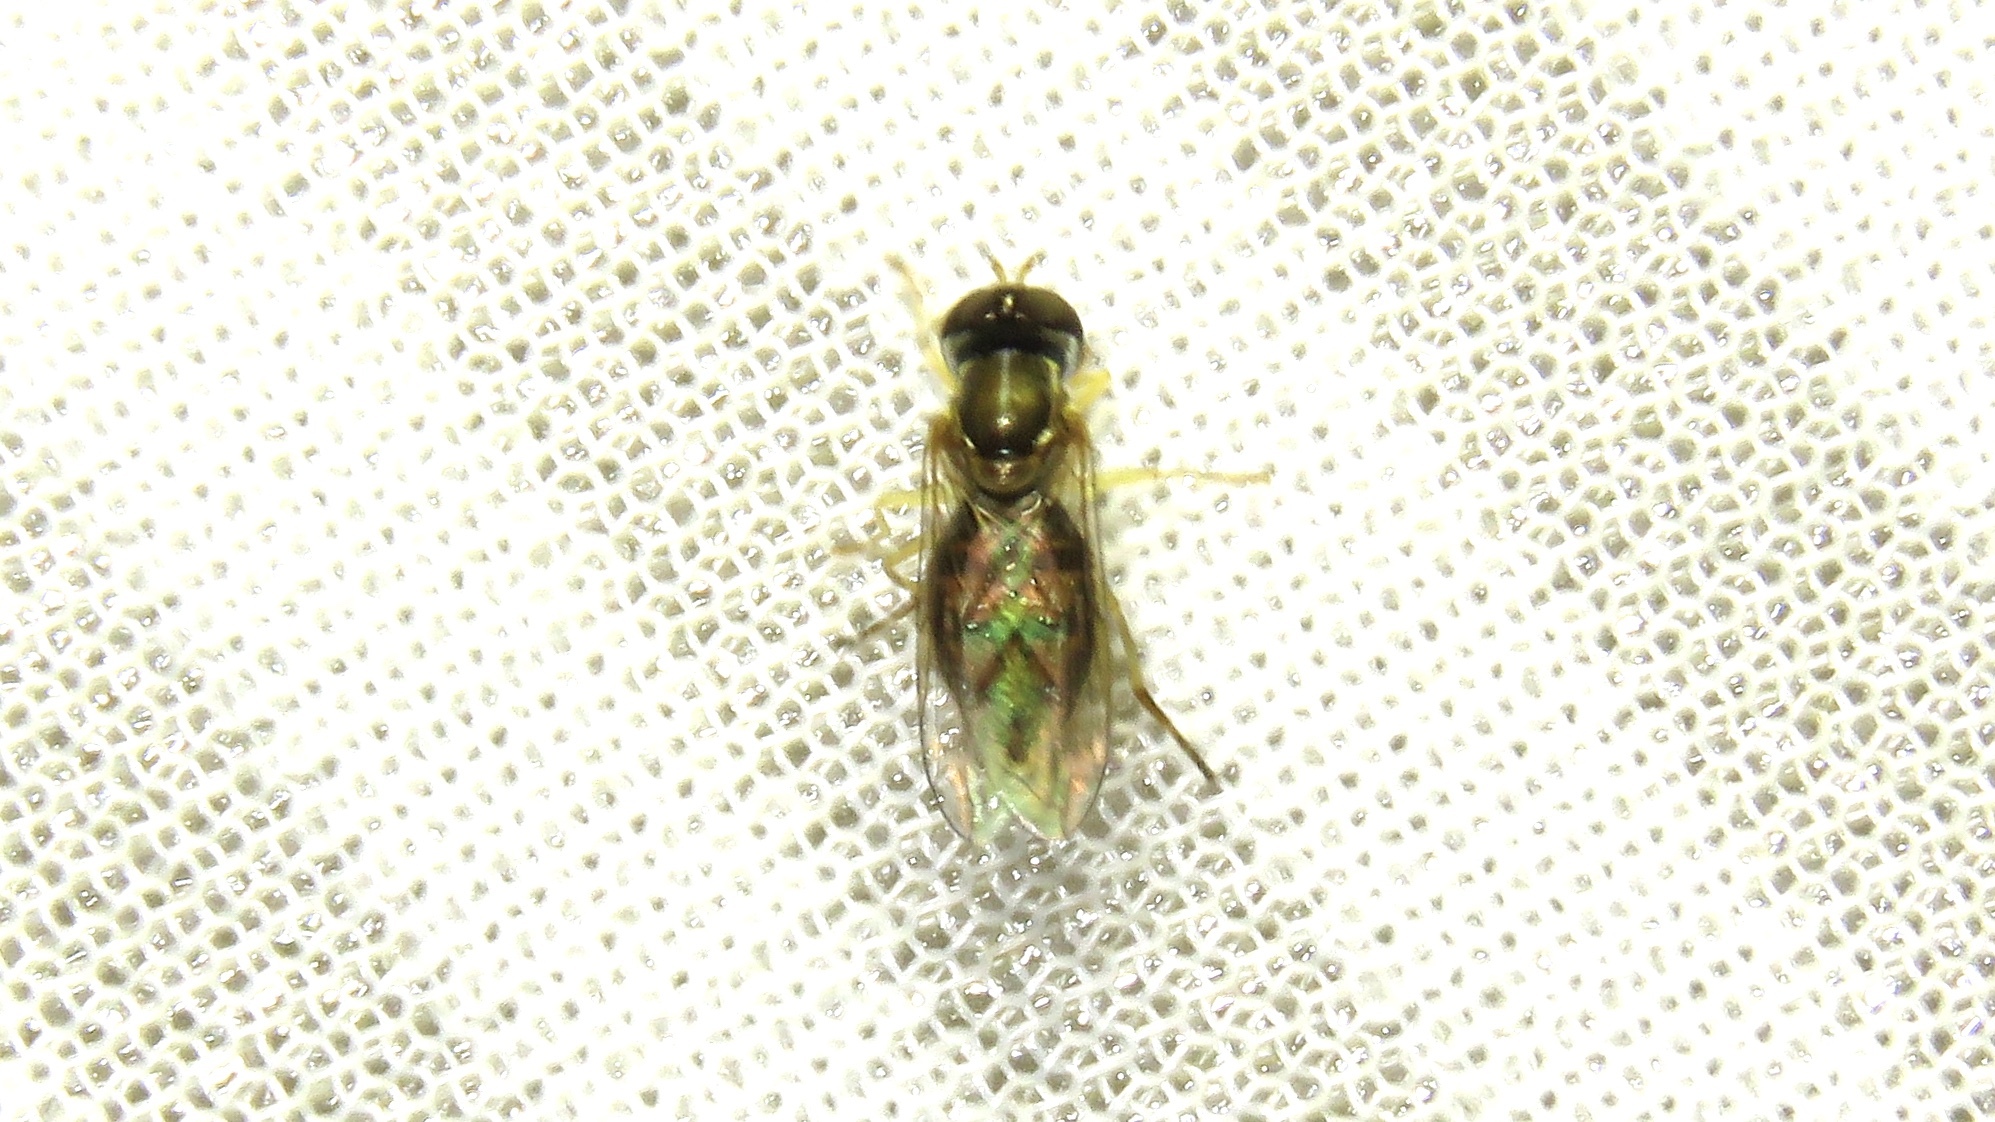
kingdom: Animalia
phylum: Arthropoda
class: Insecta
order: Diptera
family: Syrphidae
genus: Toxomerus
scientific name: Toxomerus marginatus
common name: Syrphid fly
